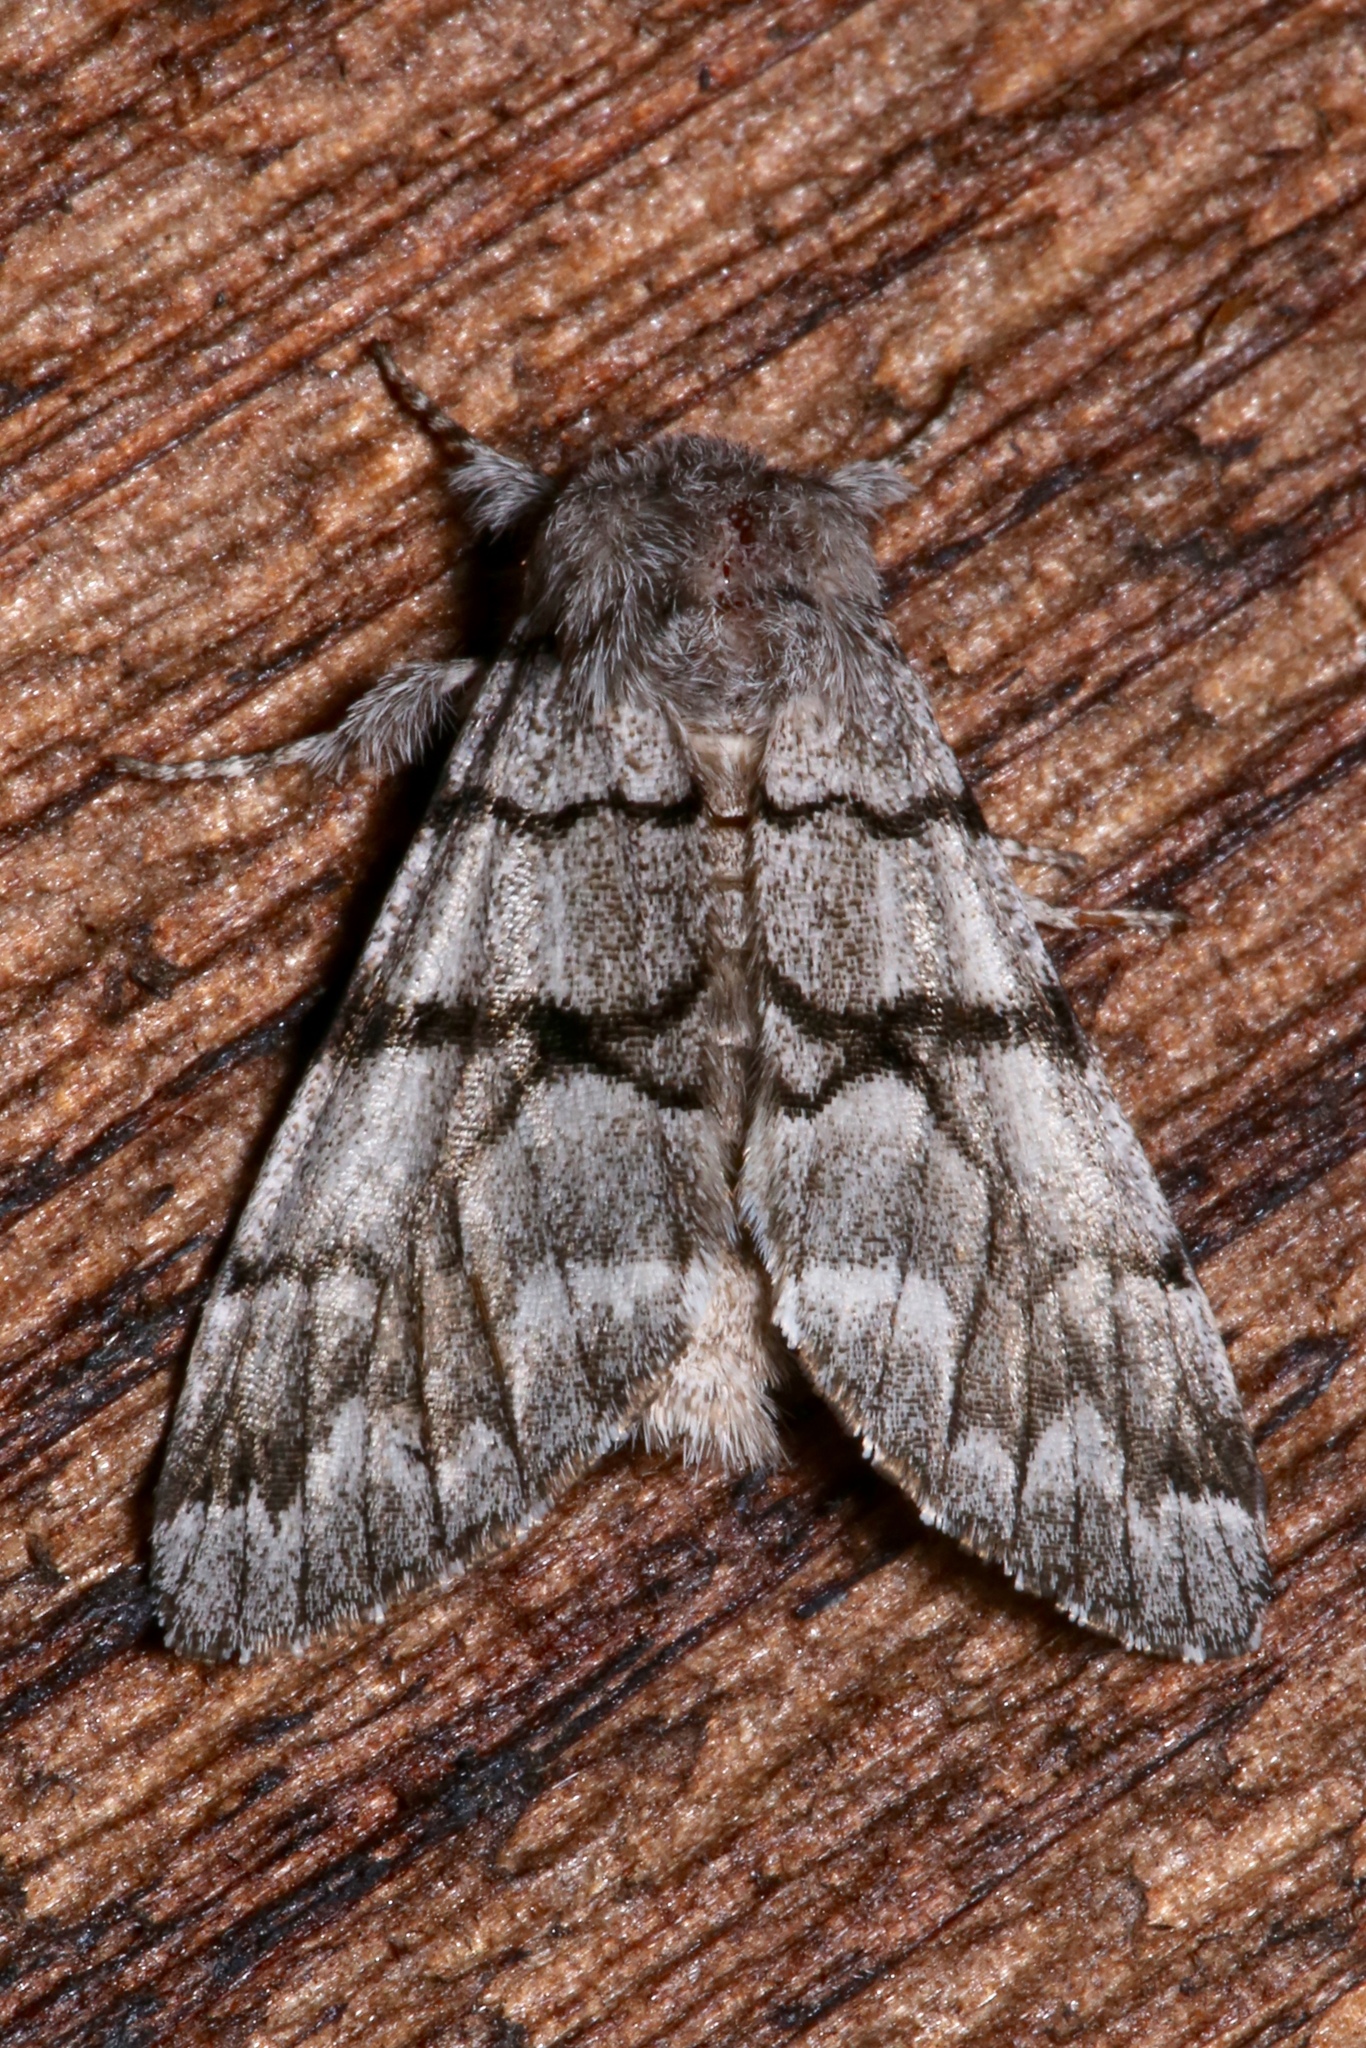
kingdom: Animalia
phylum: Arthropoda
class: Insecta
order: Lepidoptera
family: Noctuidae
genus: Panthea
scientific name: Panthea furcilla
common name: Eastern panthea moth
